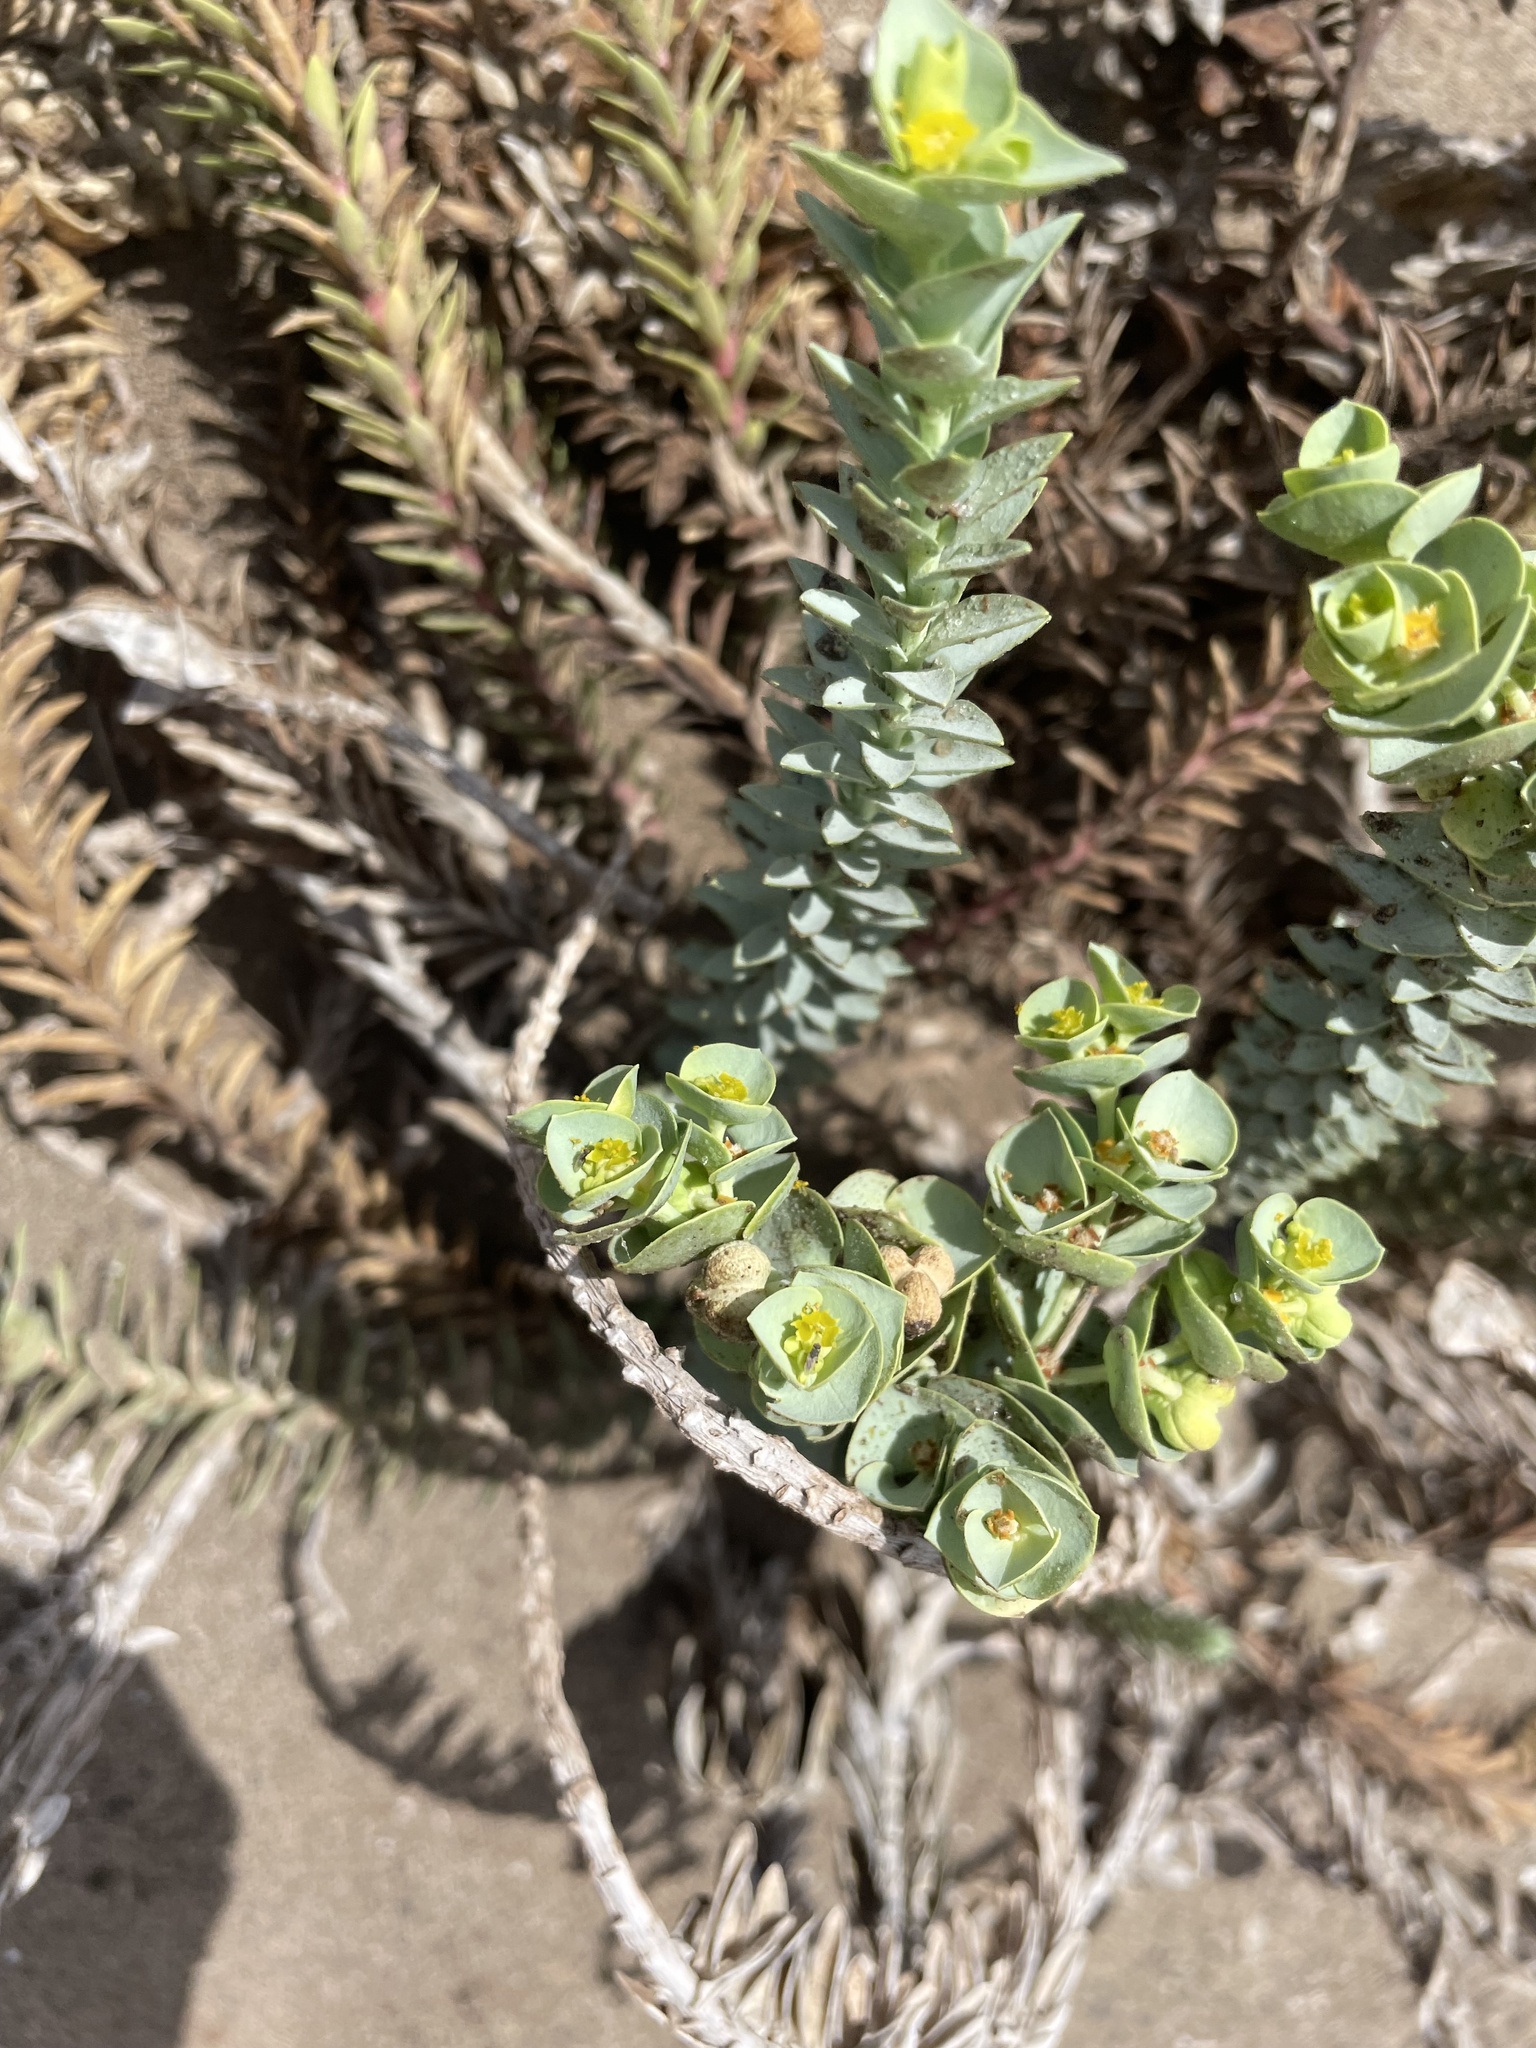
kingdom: Plantae
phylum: Tracheophyta
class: Magnoliopsida
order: Malpighiales
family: Euphorbiaceae
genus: Euphorbia
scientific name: Euphorbia paralias
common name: Sea spurge
